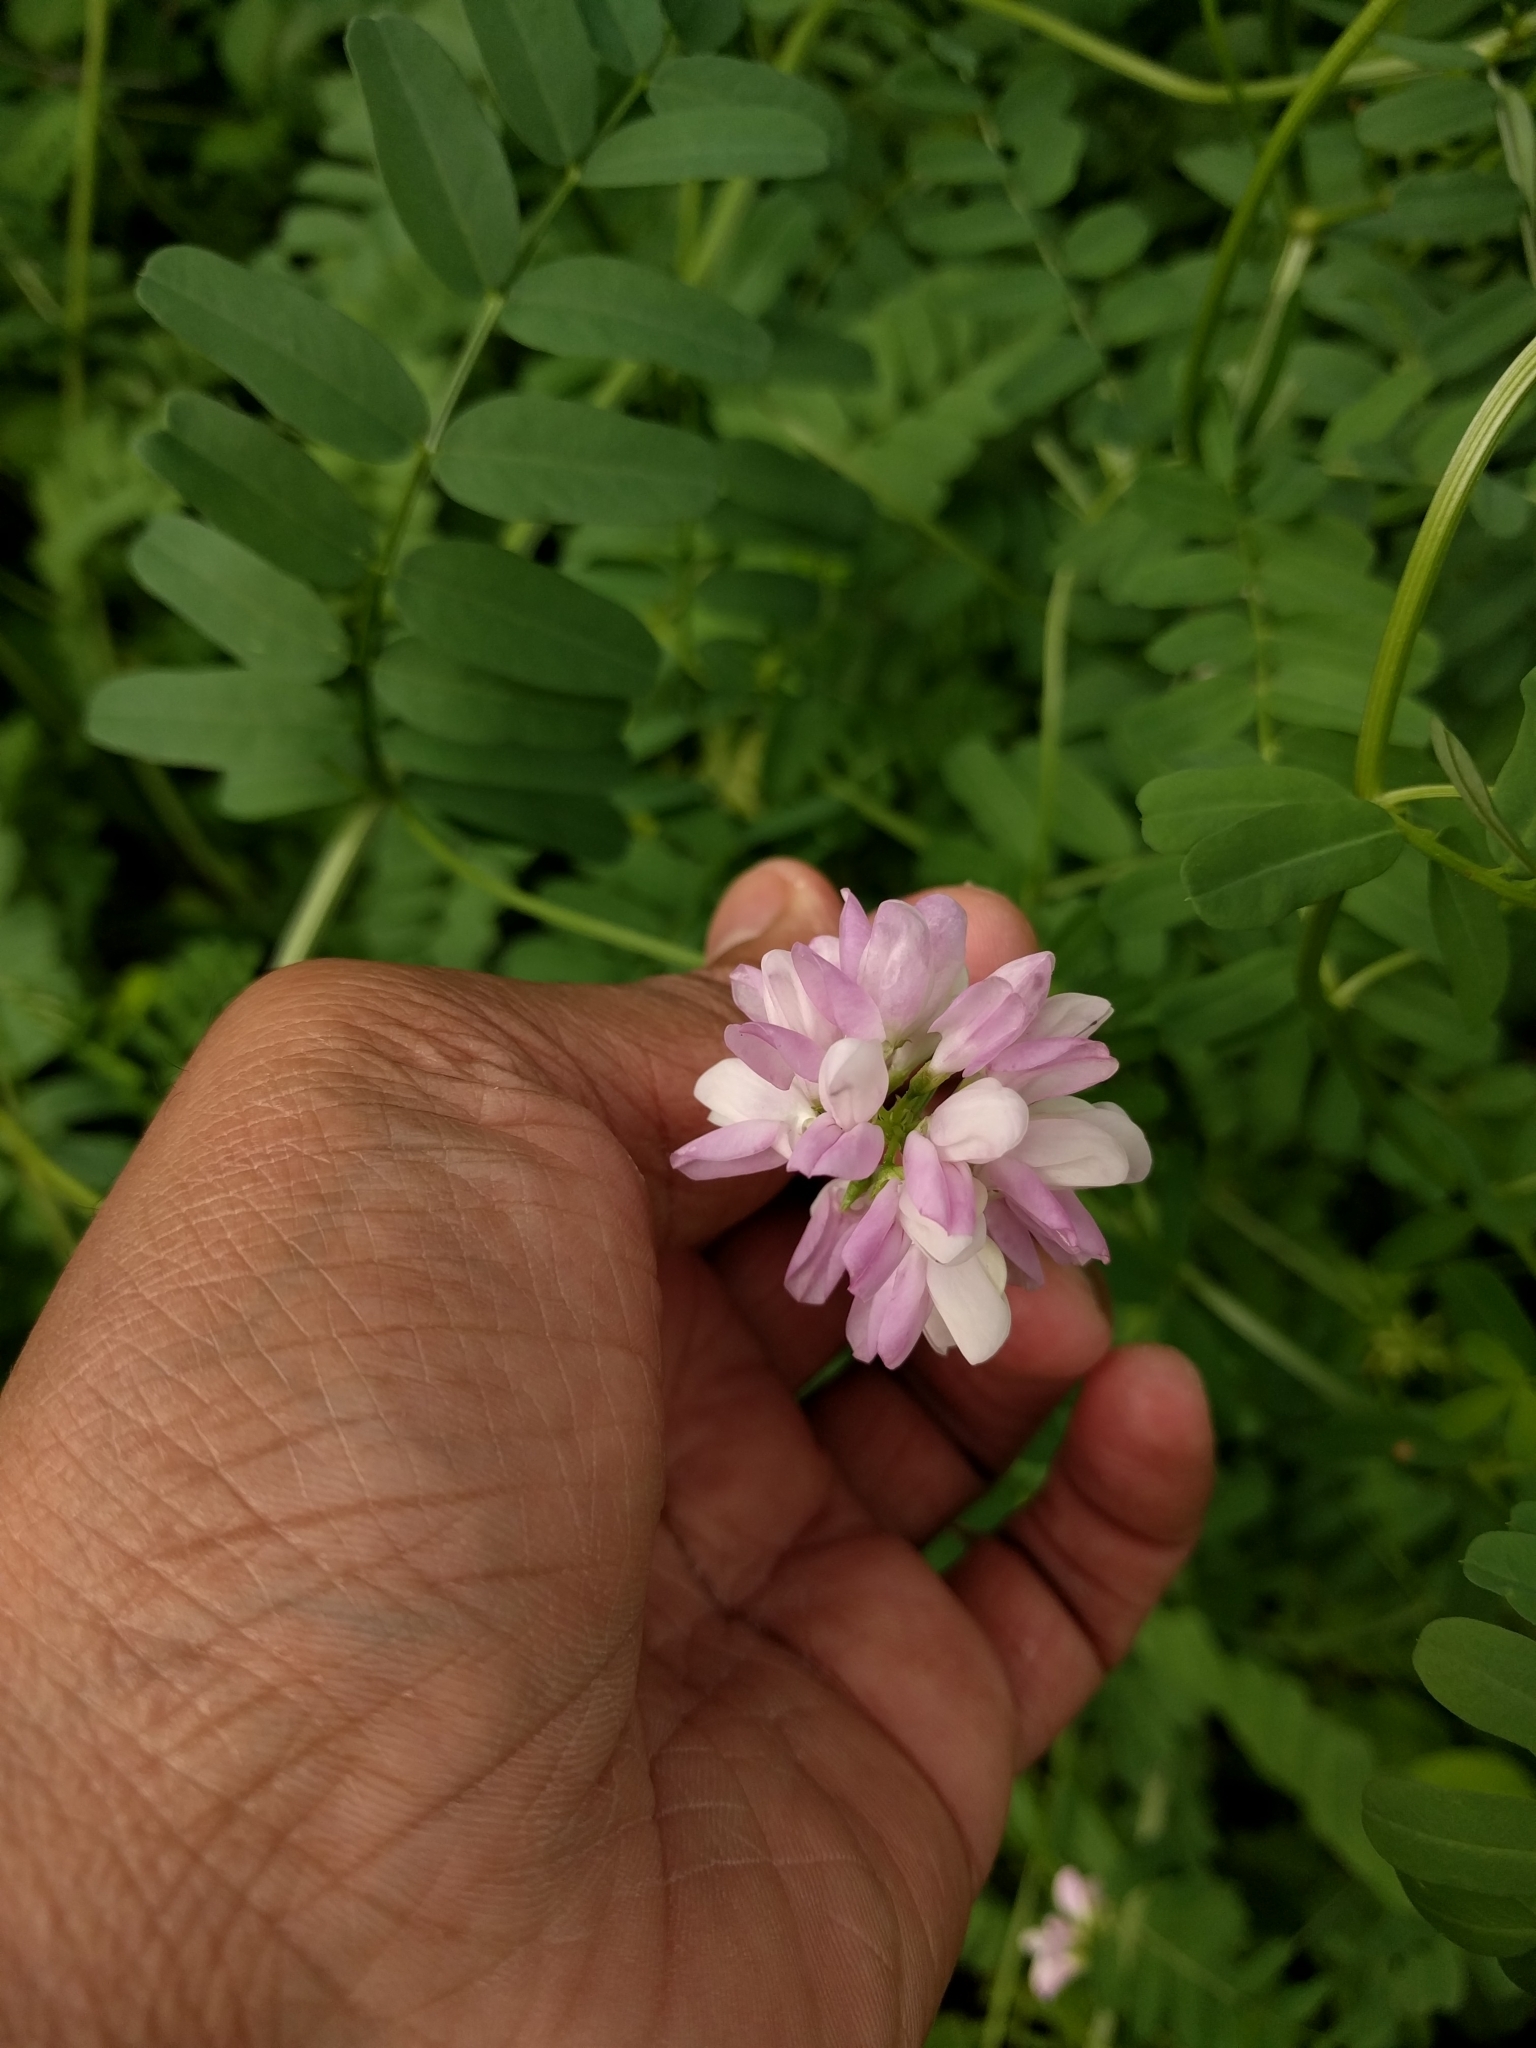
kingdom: Plantae
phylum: Tracheophyta
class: Magnoliopsida
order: Fabales
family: Fabaceae
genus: Coronilla
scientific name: Coronilla varia
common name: Crownvetch
